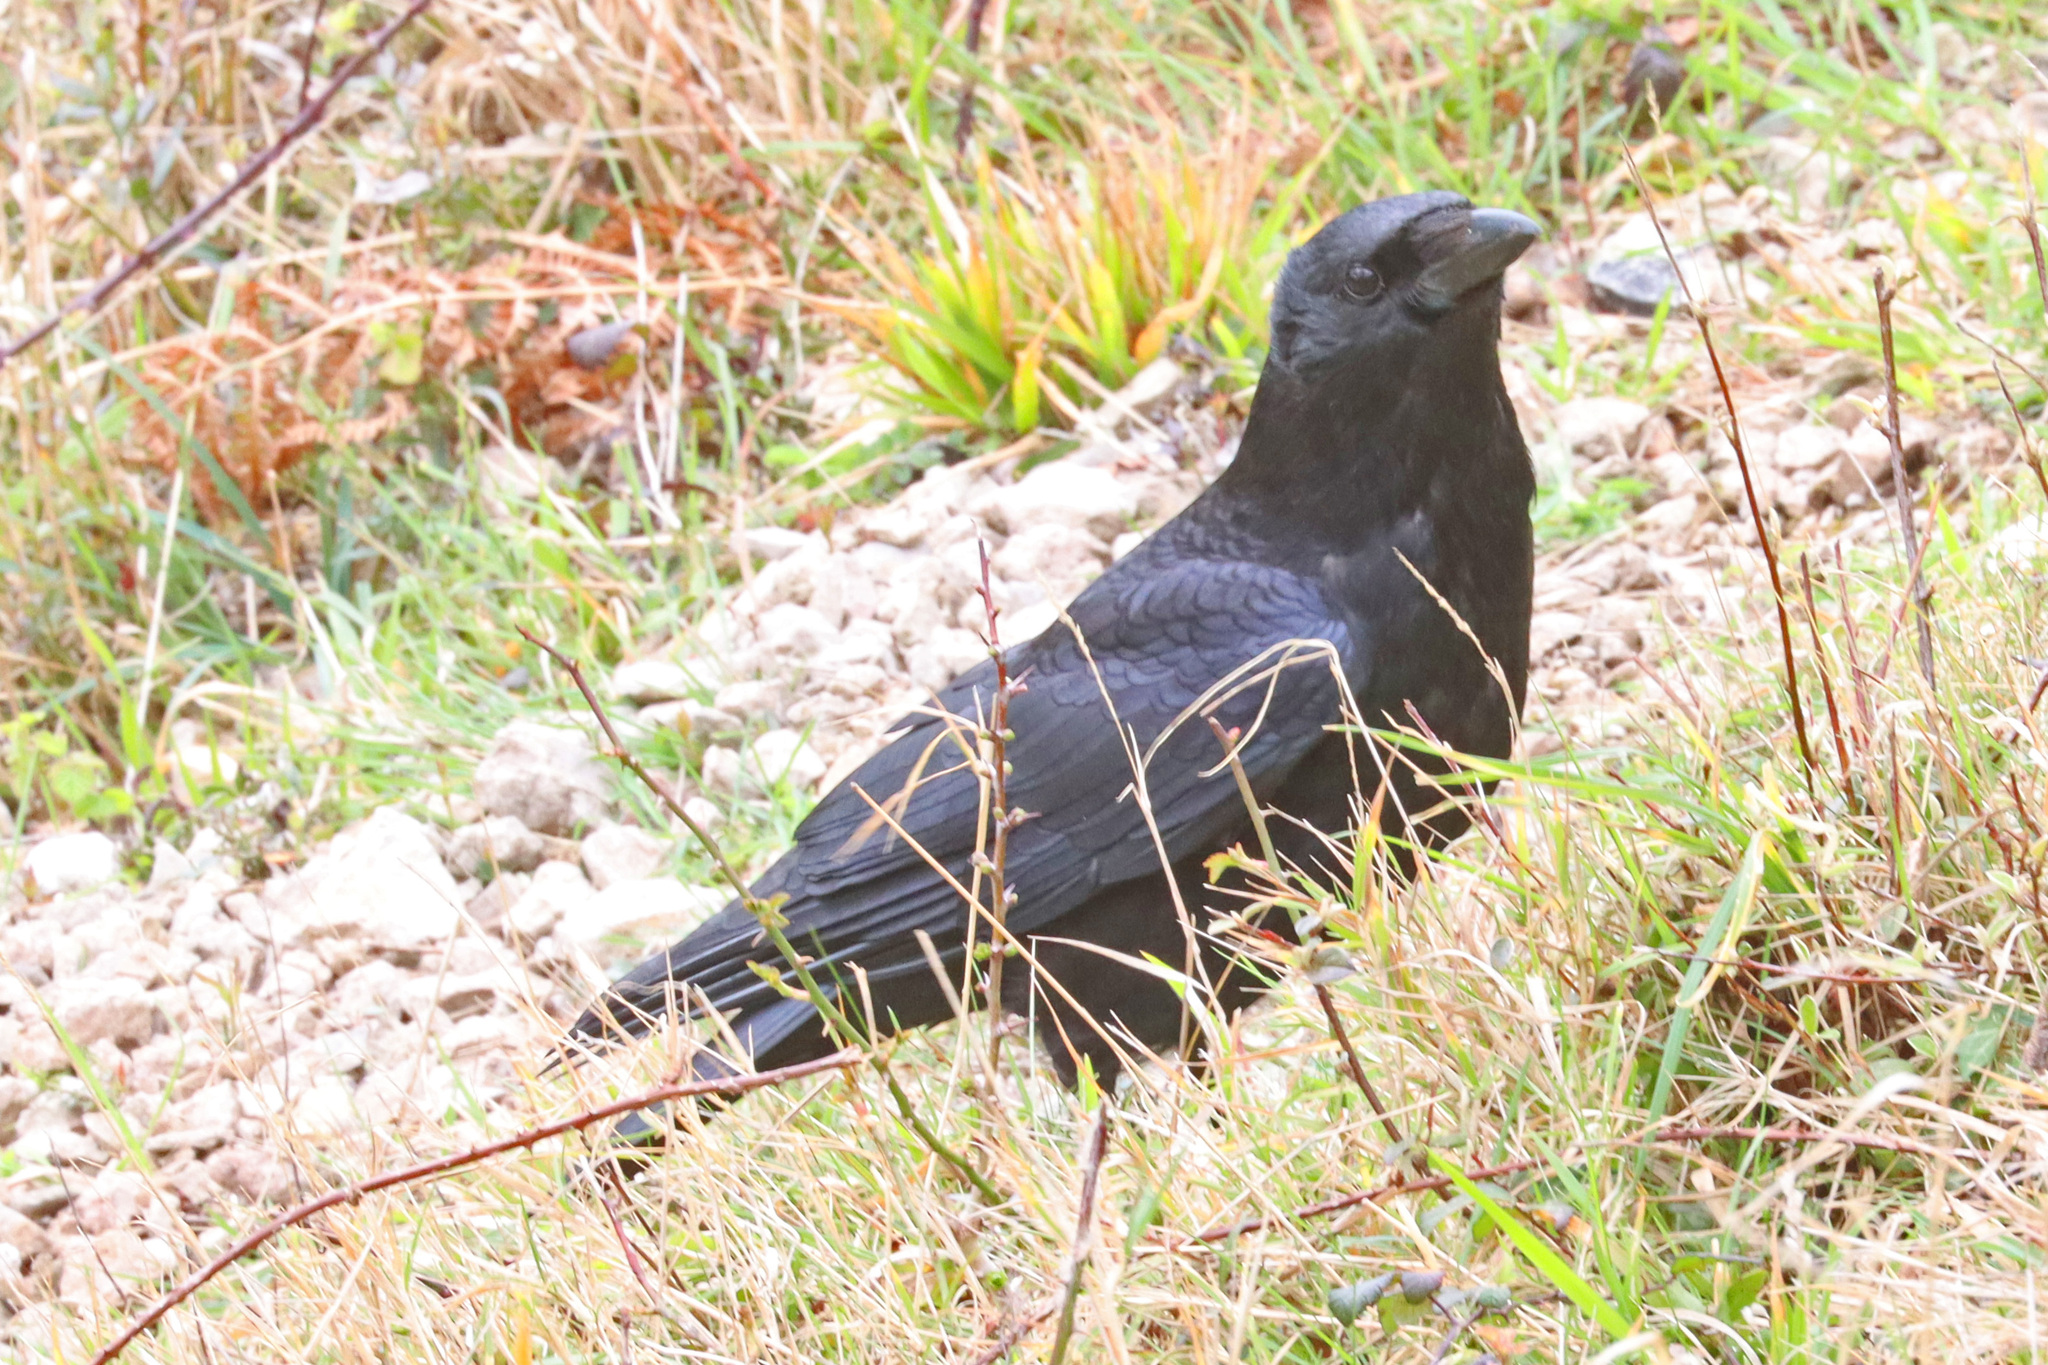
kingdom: Animalia
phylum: Chordata
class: Aves
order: Passeriformes
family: Corvidae
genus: Corvus
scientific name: Corvus corone
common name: Carrion crow
